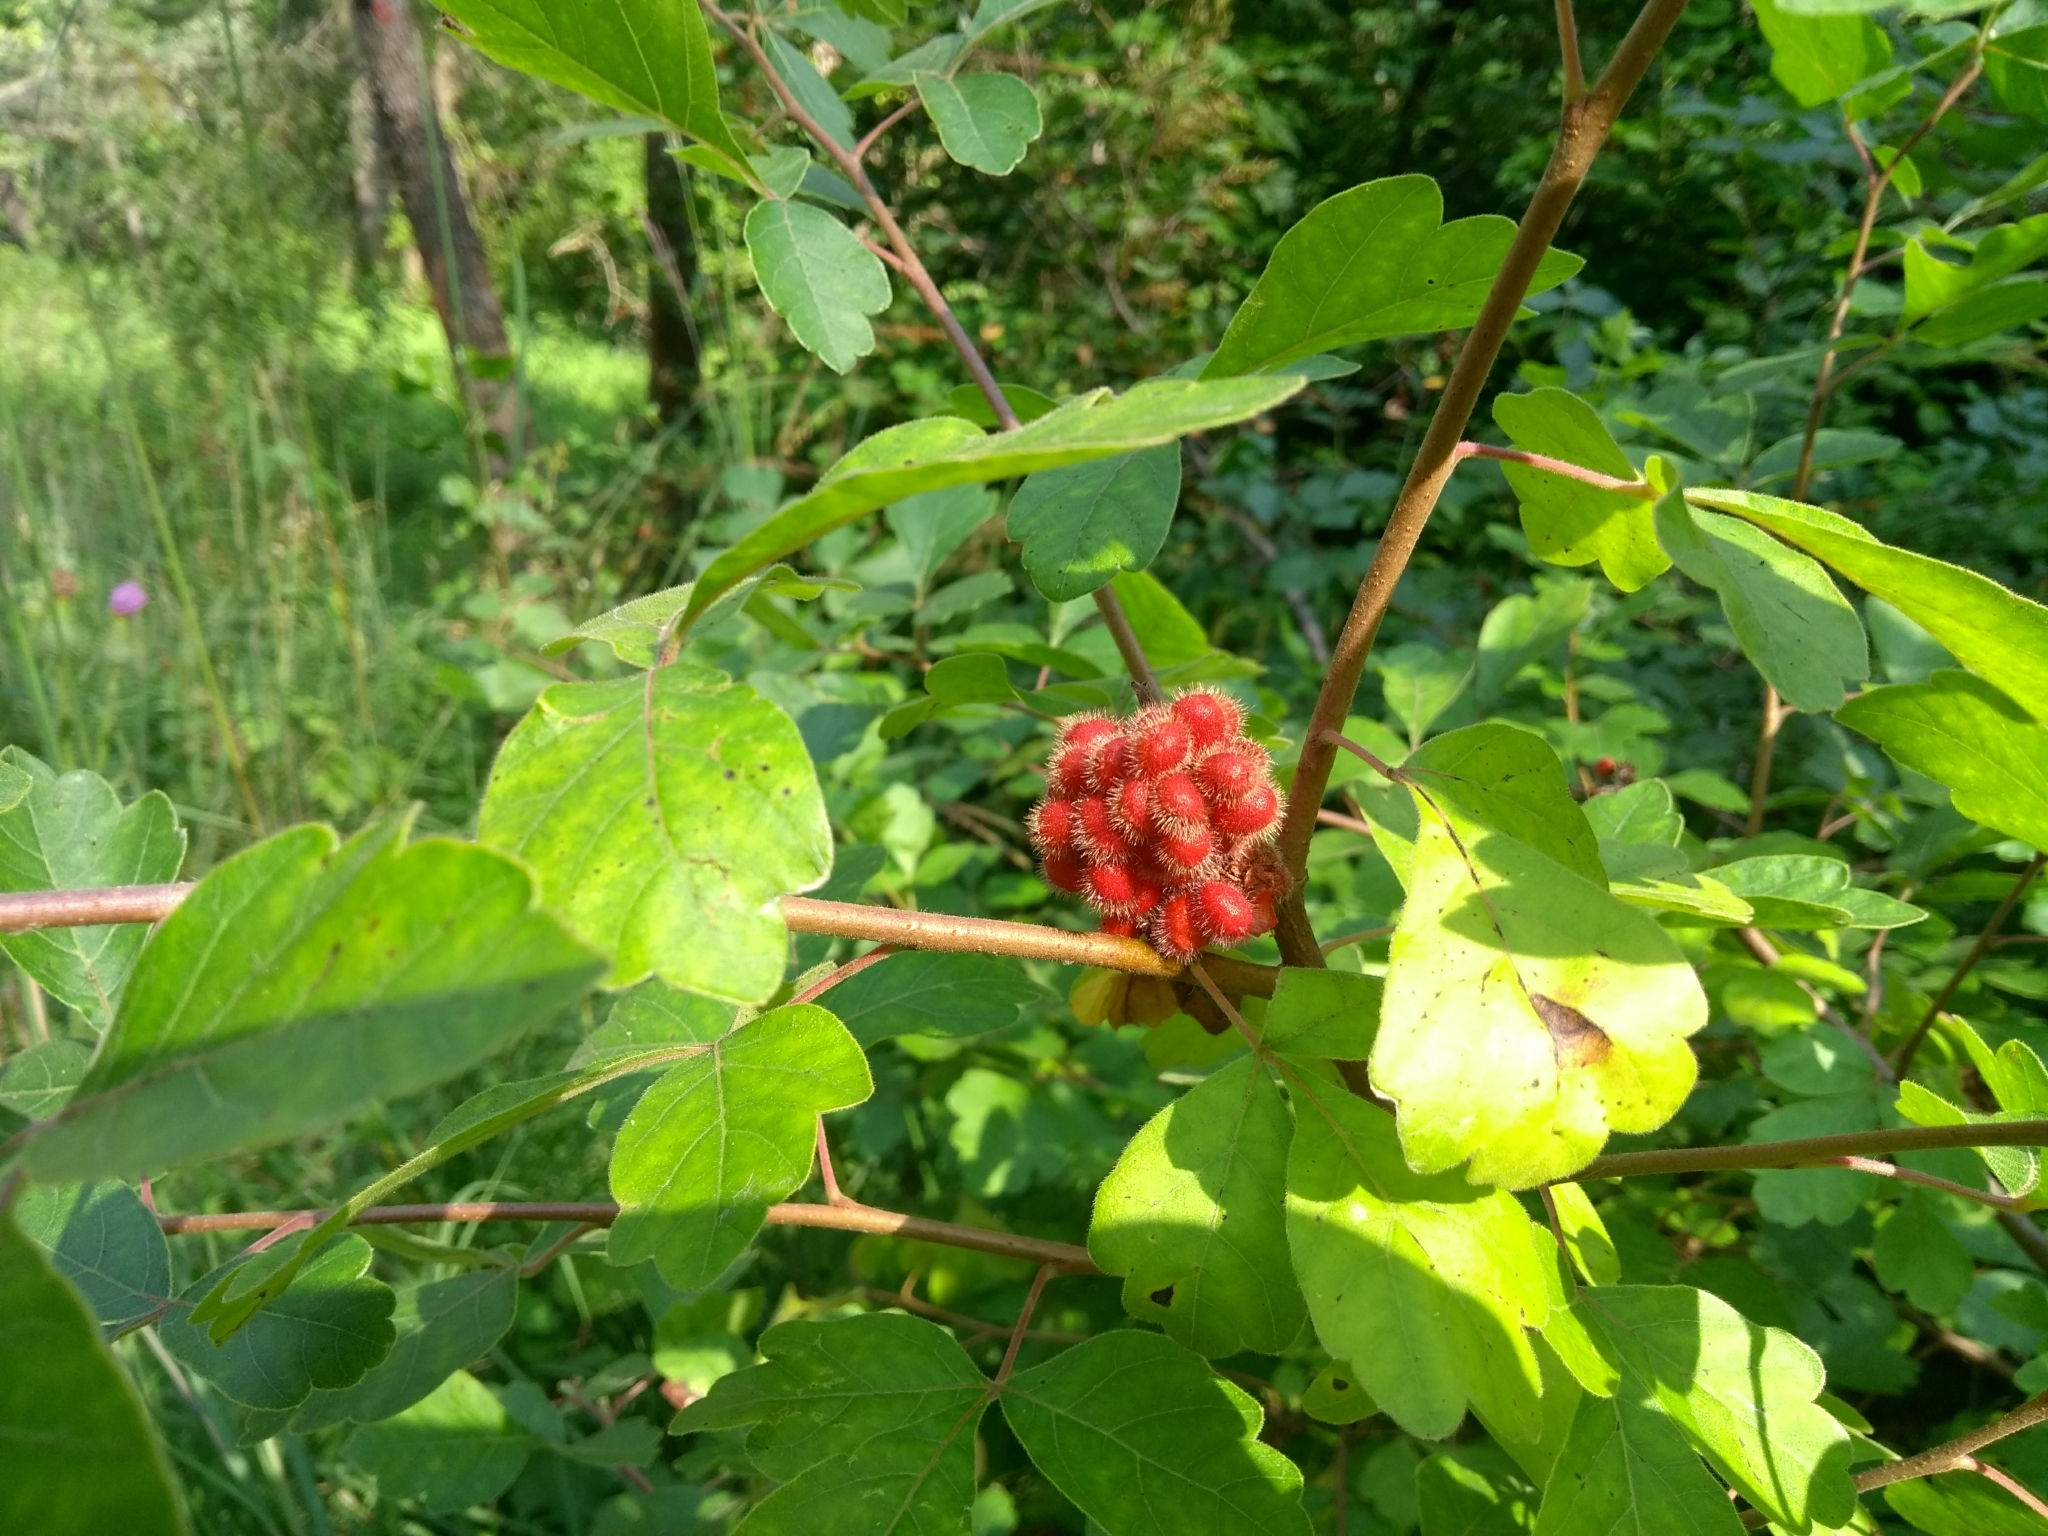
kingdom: Plantae
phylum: Tracheophyta
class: Magnoliopsida
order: Sapindales
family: Anacardiaceae
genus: Rhus
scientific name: Rhus aromatica
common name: Aromatic sumac
